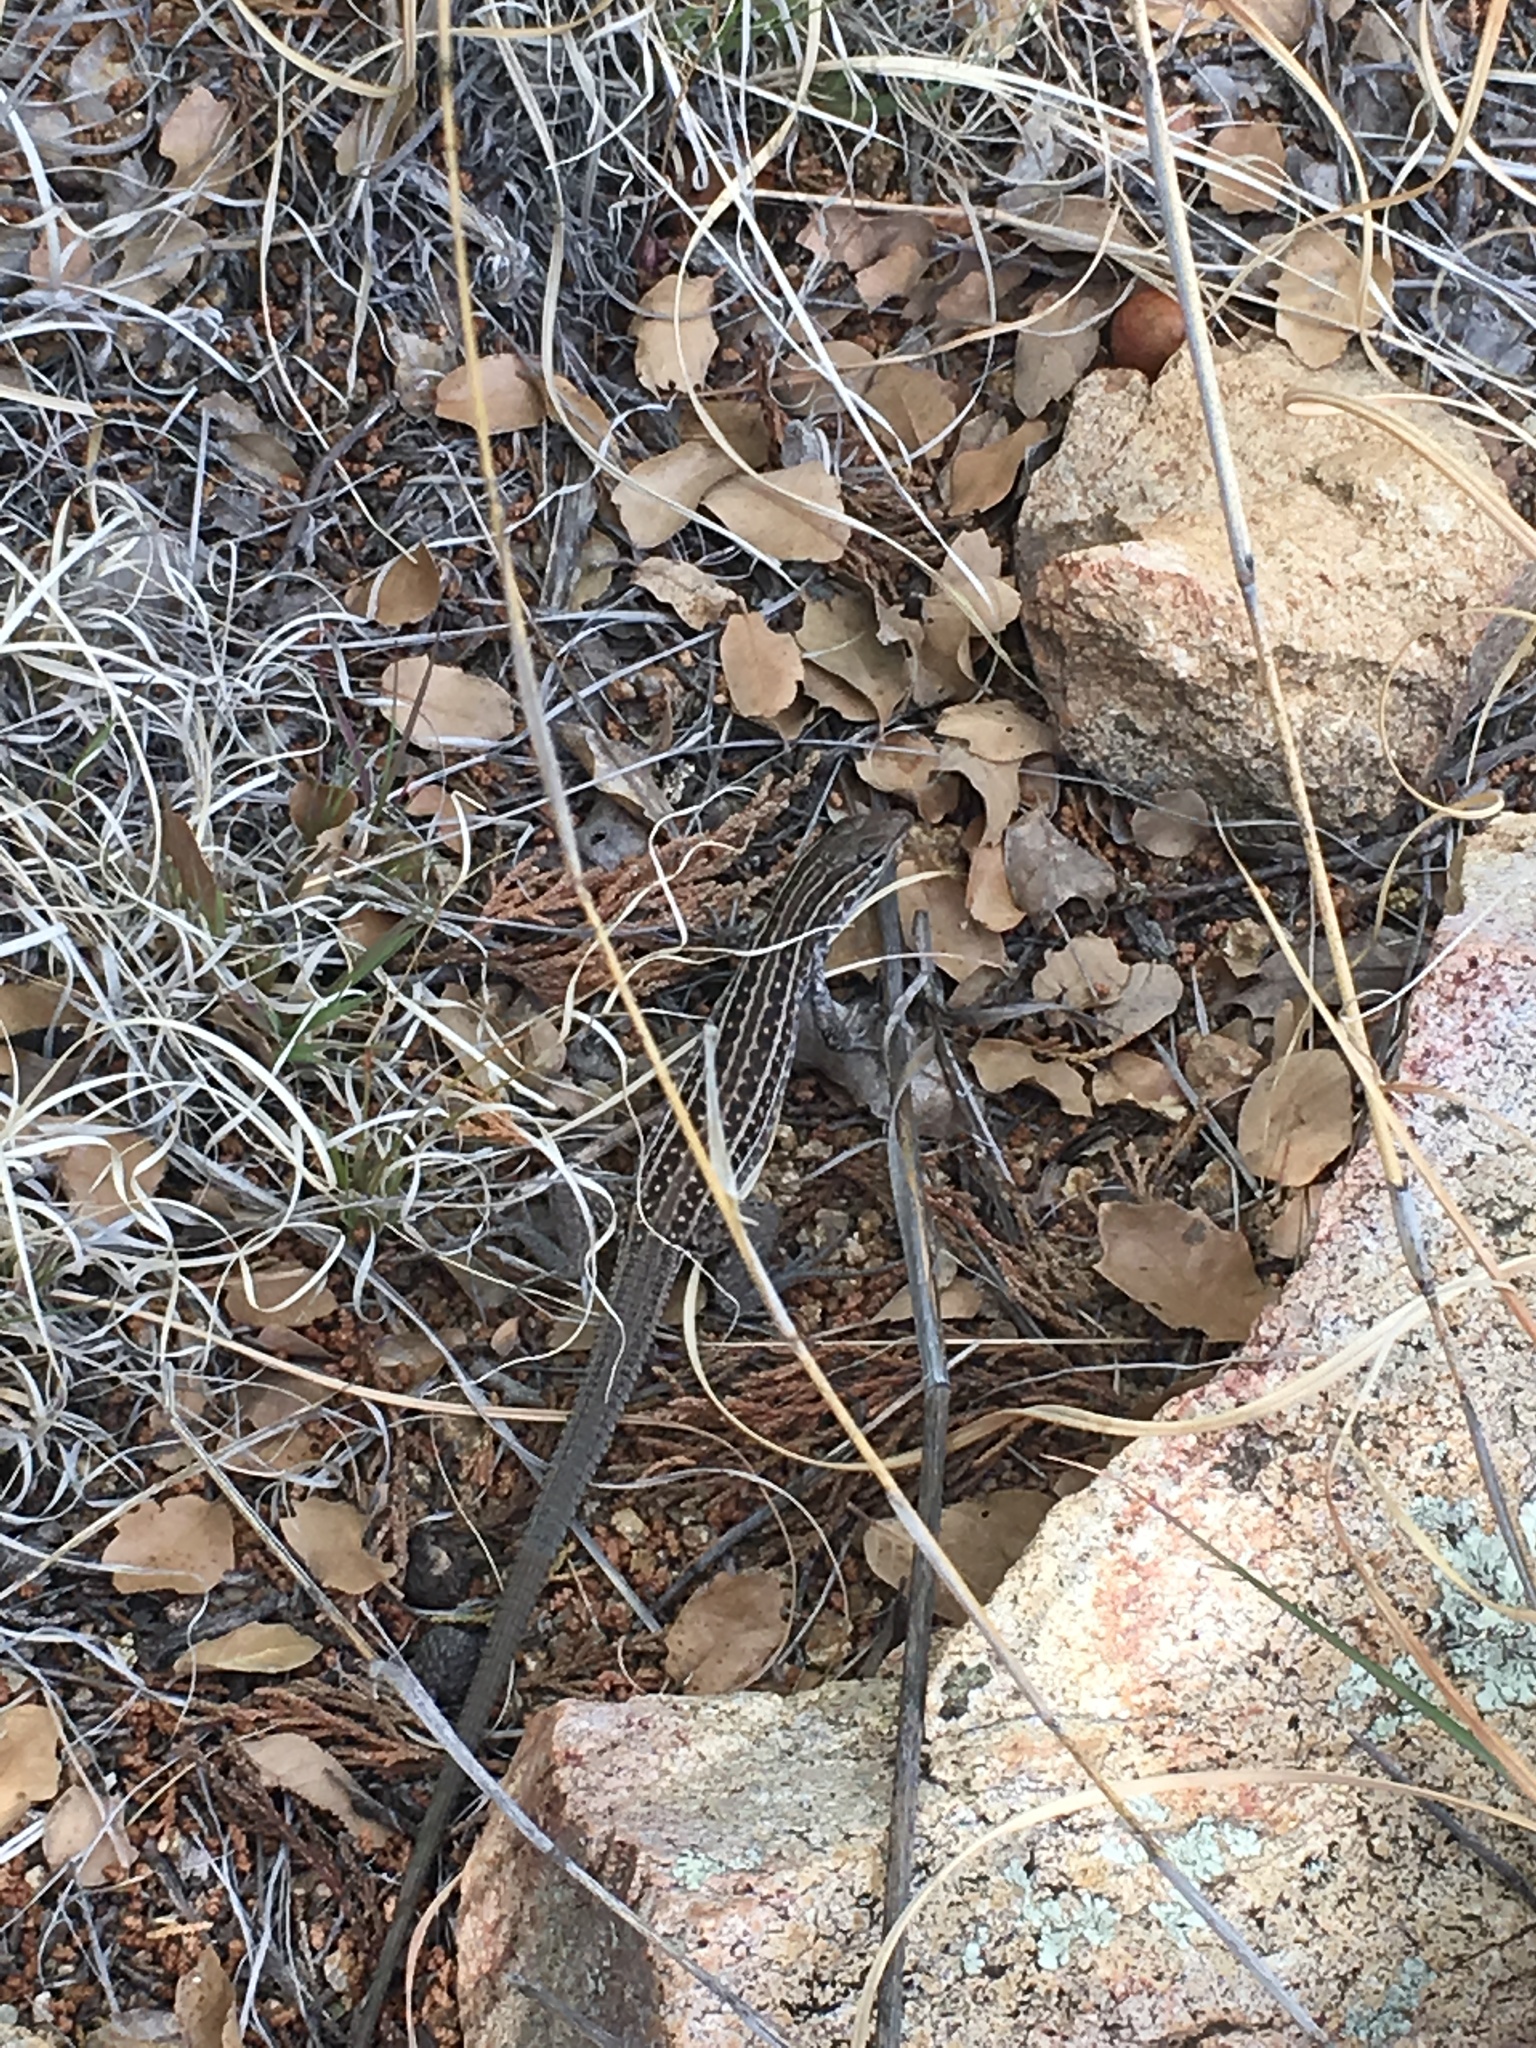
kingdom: Animalia
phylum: Chordata
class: Squamata
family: Teiidae
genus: Aspidoscelis
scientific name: Aspidoscelis exsanguis
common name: Chihuahuan spotted whiptail
